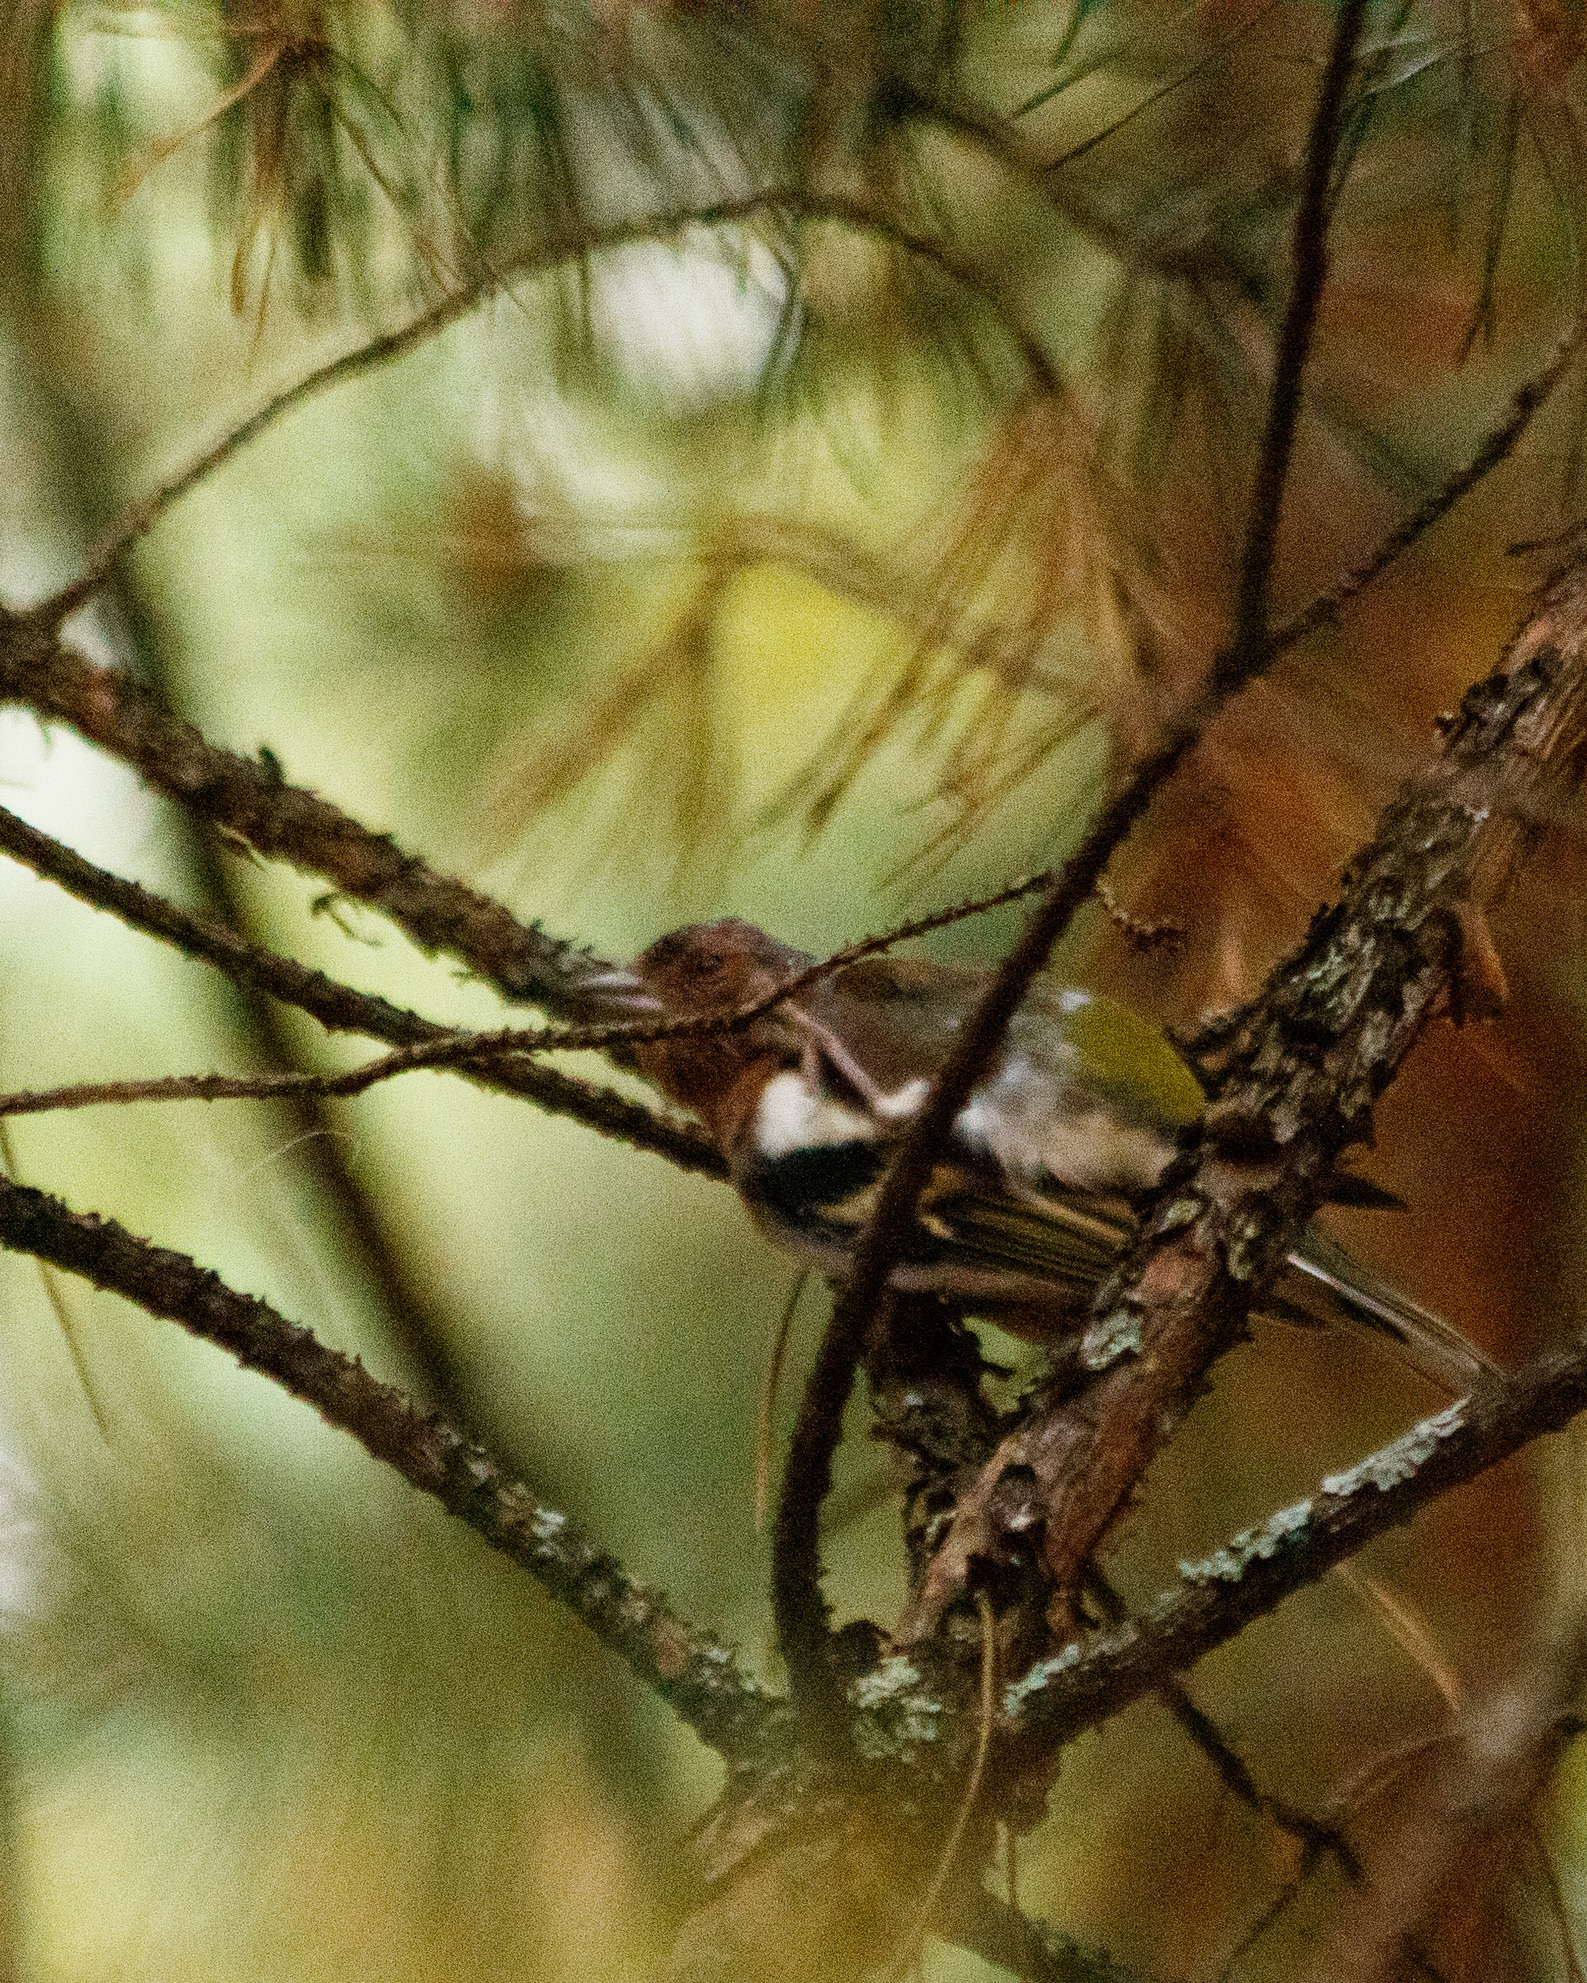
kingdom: Animalia
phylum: Chordata
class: Aves
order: Passeriformes
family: Fringillidae
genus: Fringilla
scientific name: Fringilla coelebs
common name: Common chaffinch
